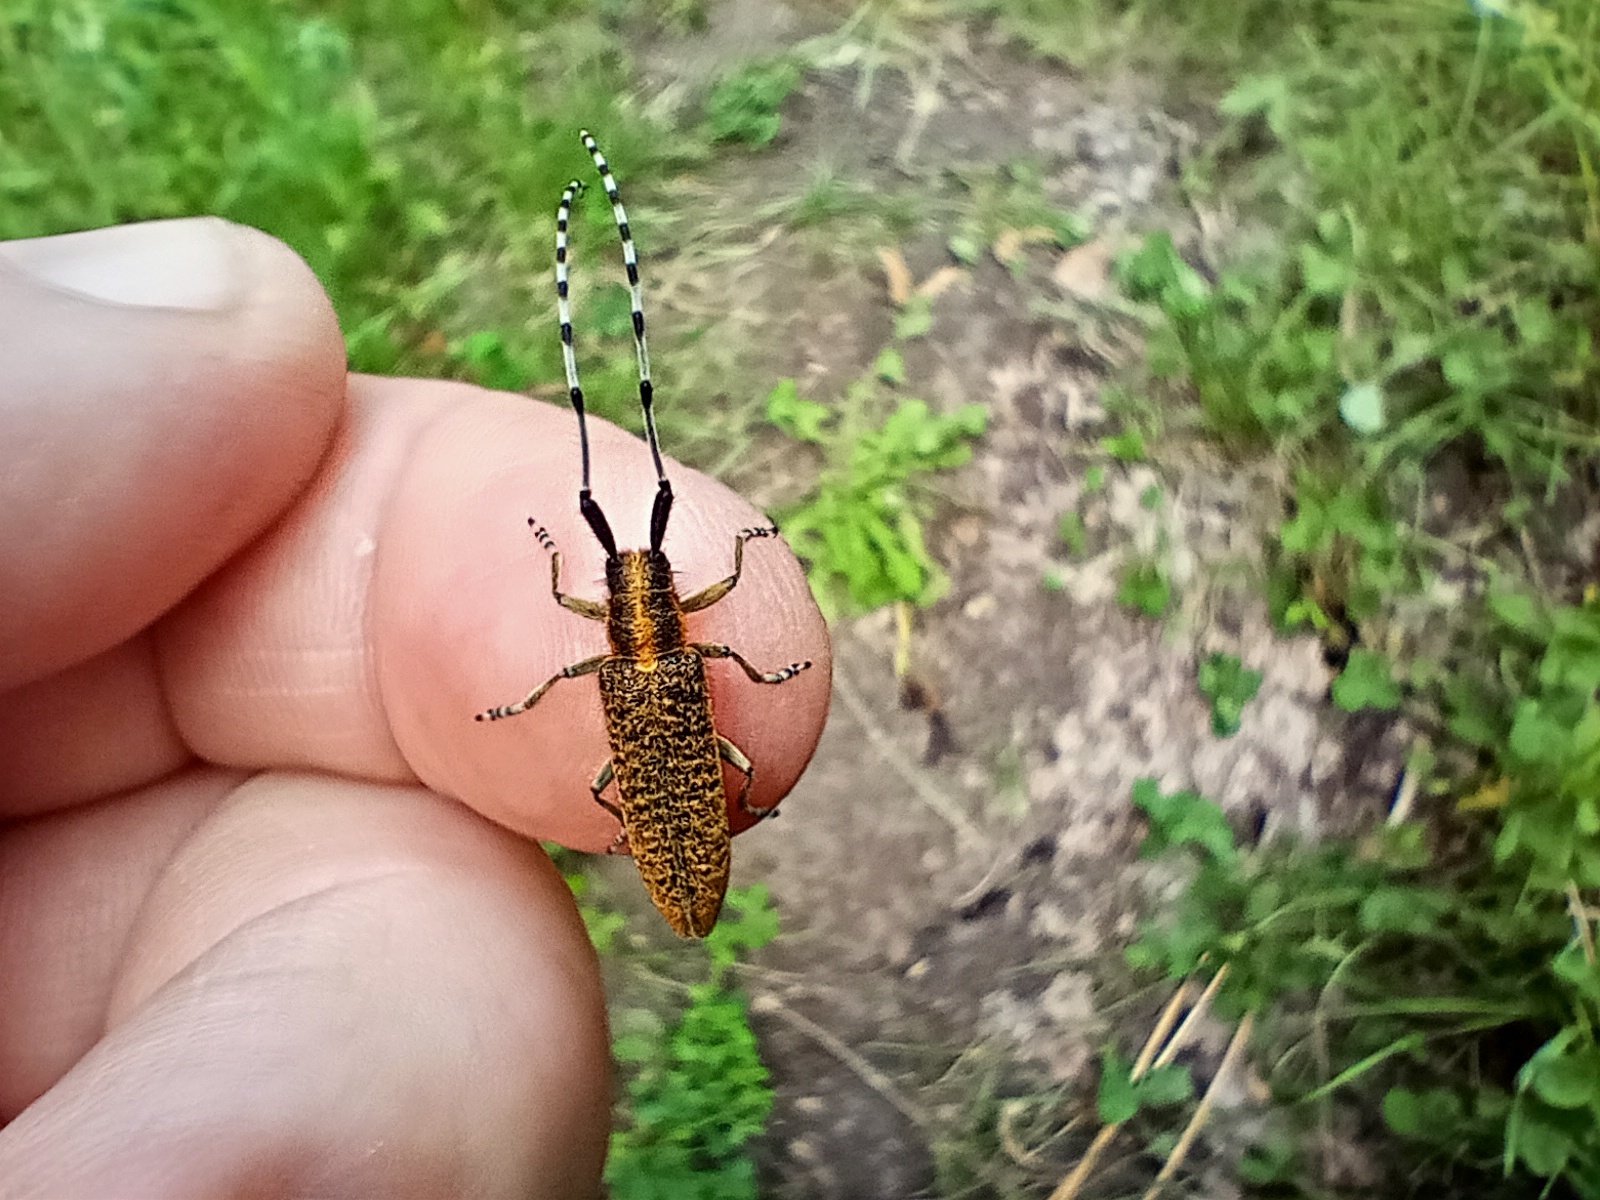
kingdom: Animalia
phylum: Arthropoda
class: Insecta
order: Coleoptera
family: Cerambycidae
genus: Agapanthia
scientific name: Agapanthia villosoviridescens
